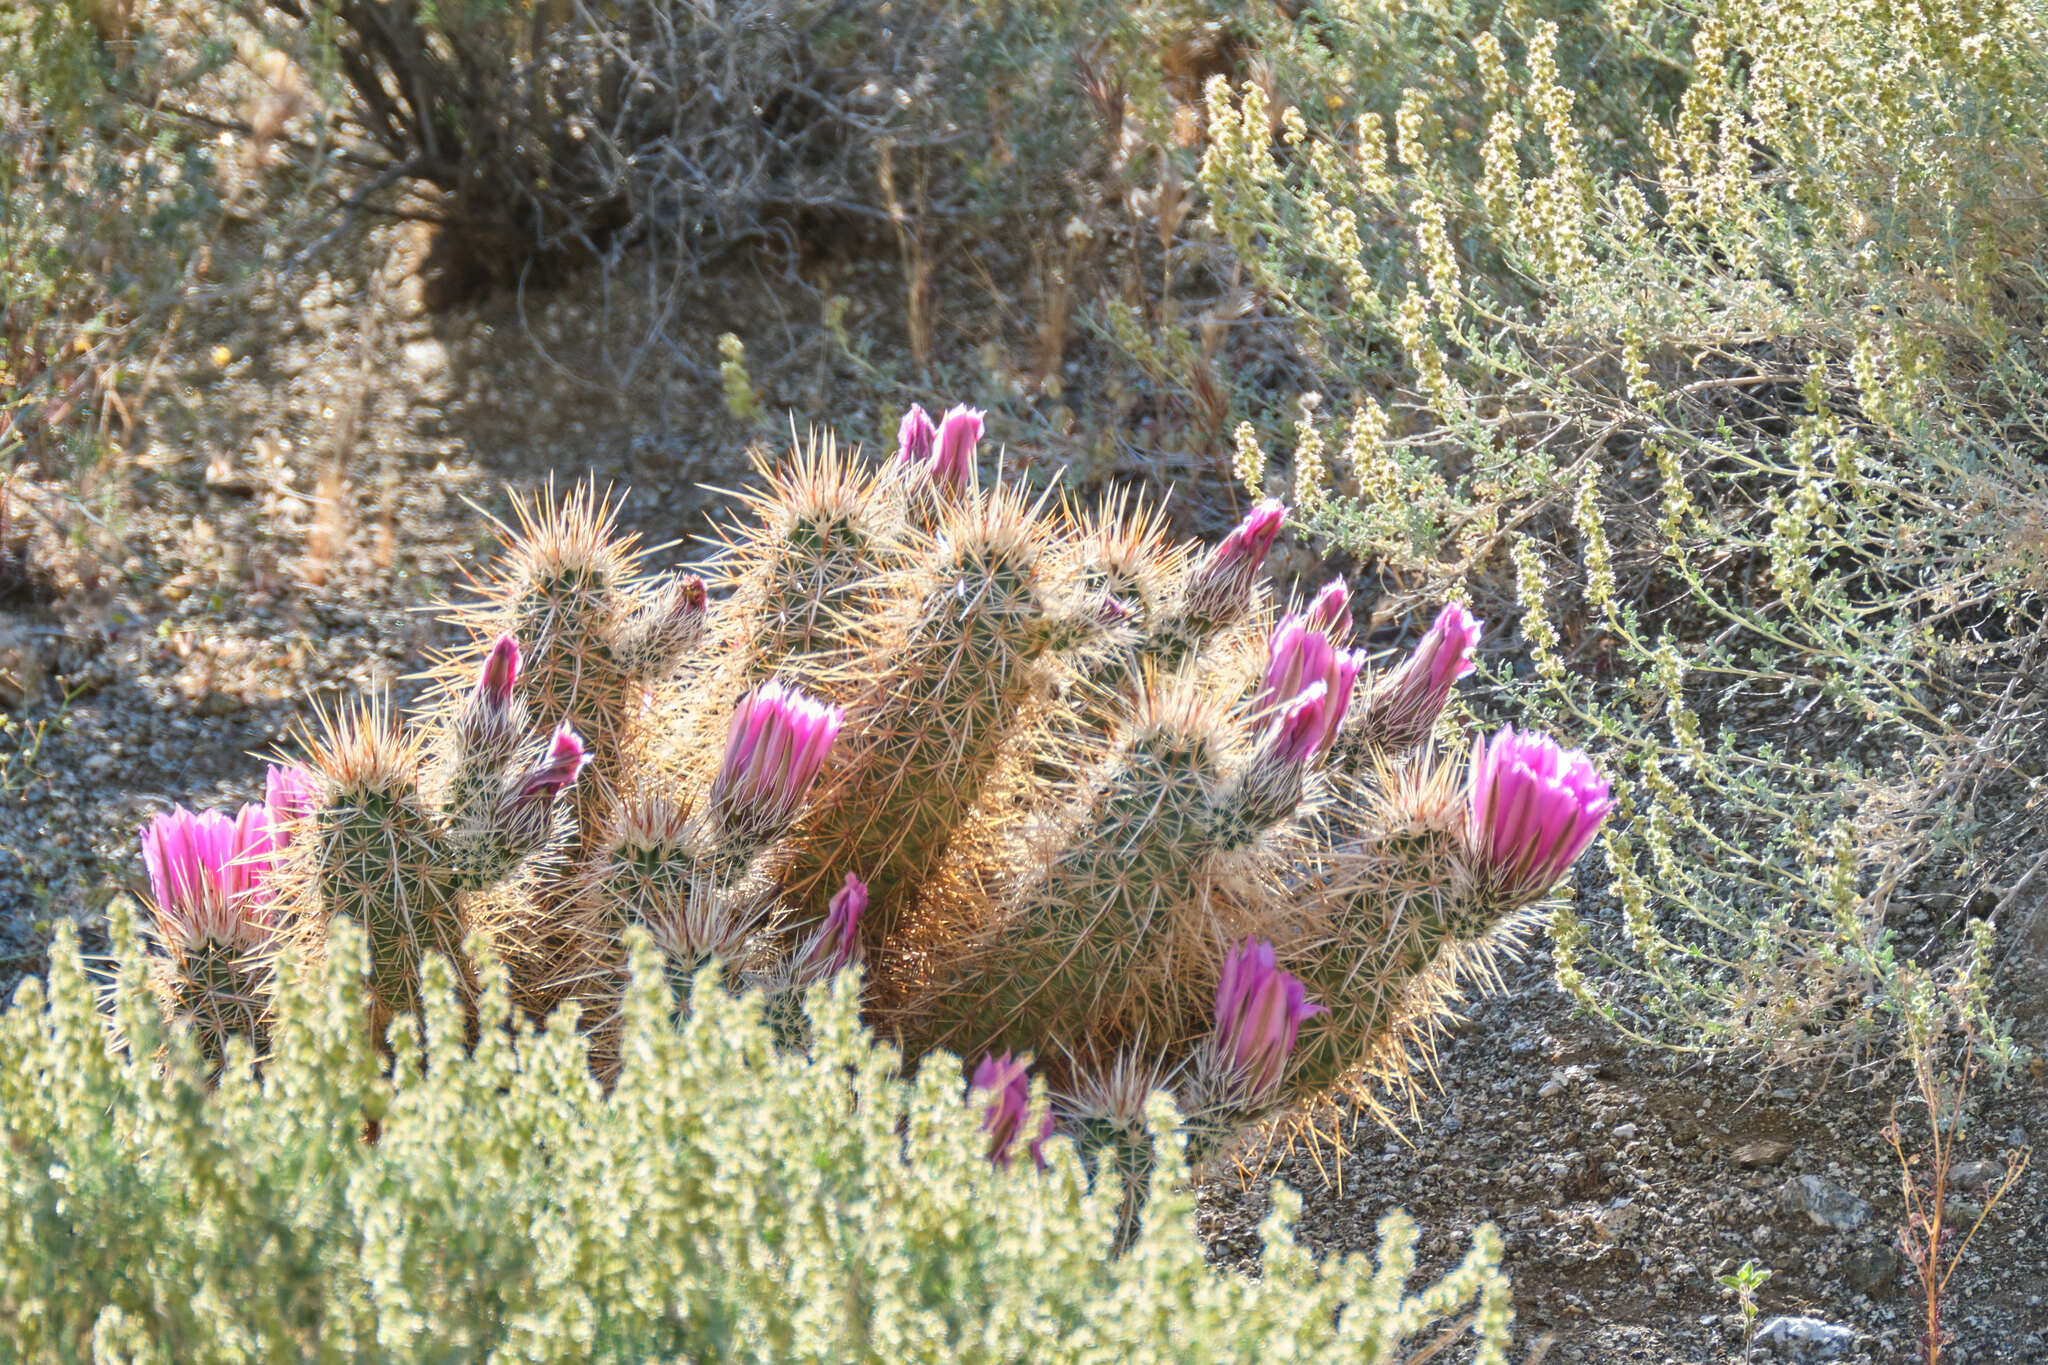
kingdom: Plantae
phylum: Tracheophyta
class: Magnoliopsida
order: Caryophyllales
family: Cactaceae
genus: Echinocereus
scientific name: Echinocereus engelmannii
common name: Engelmann's hedgehog cactus
